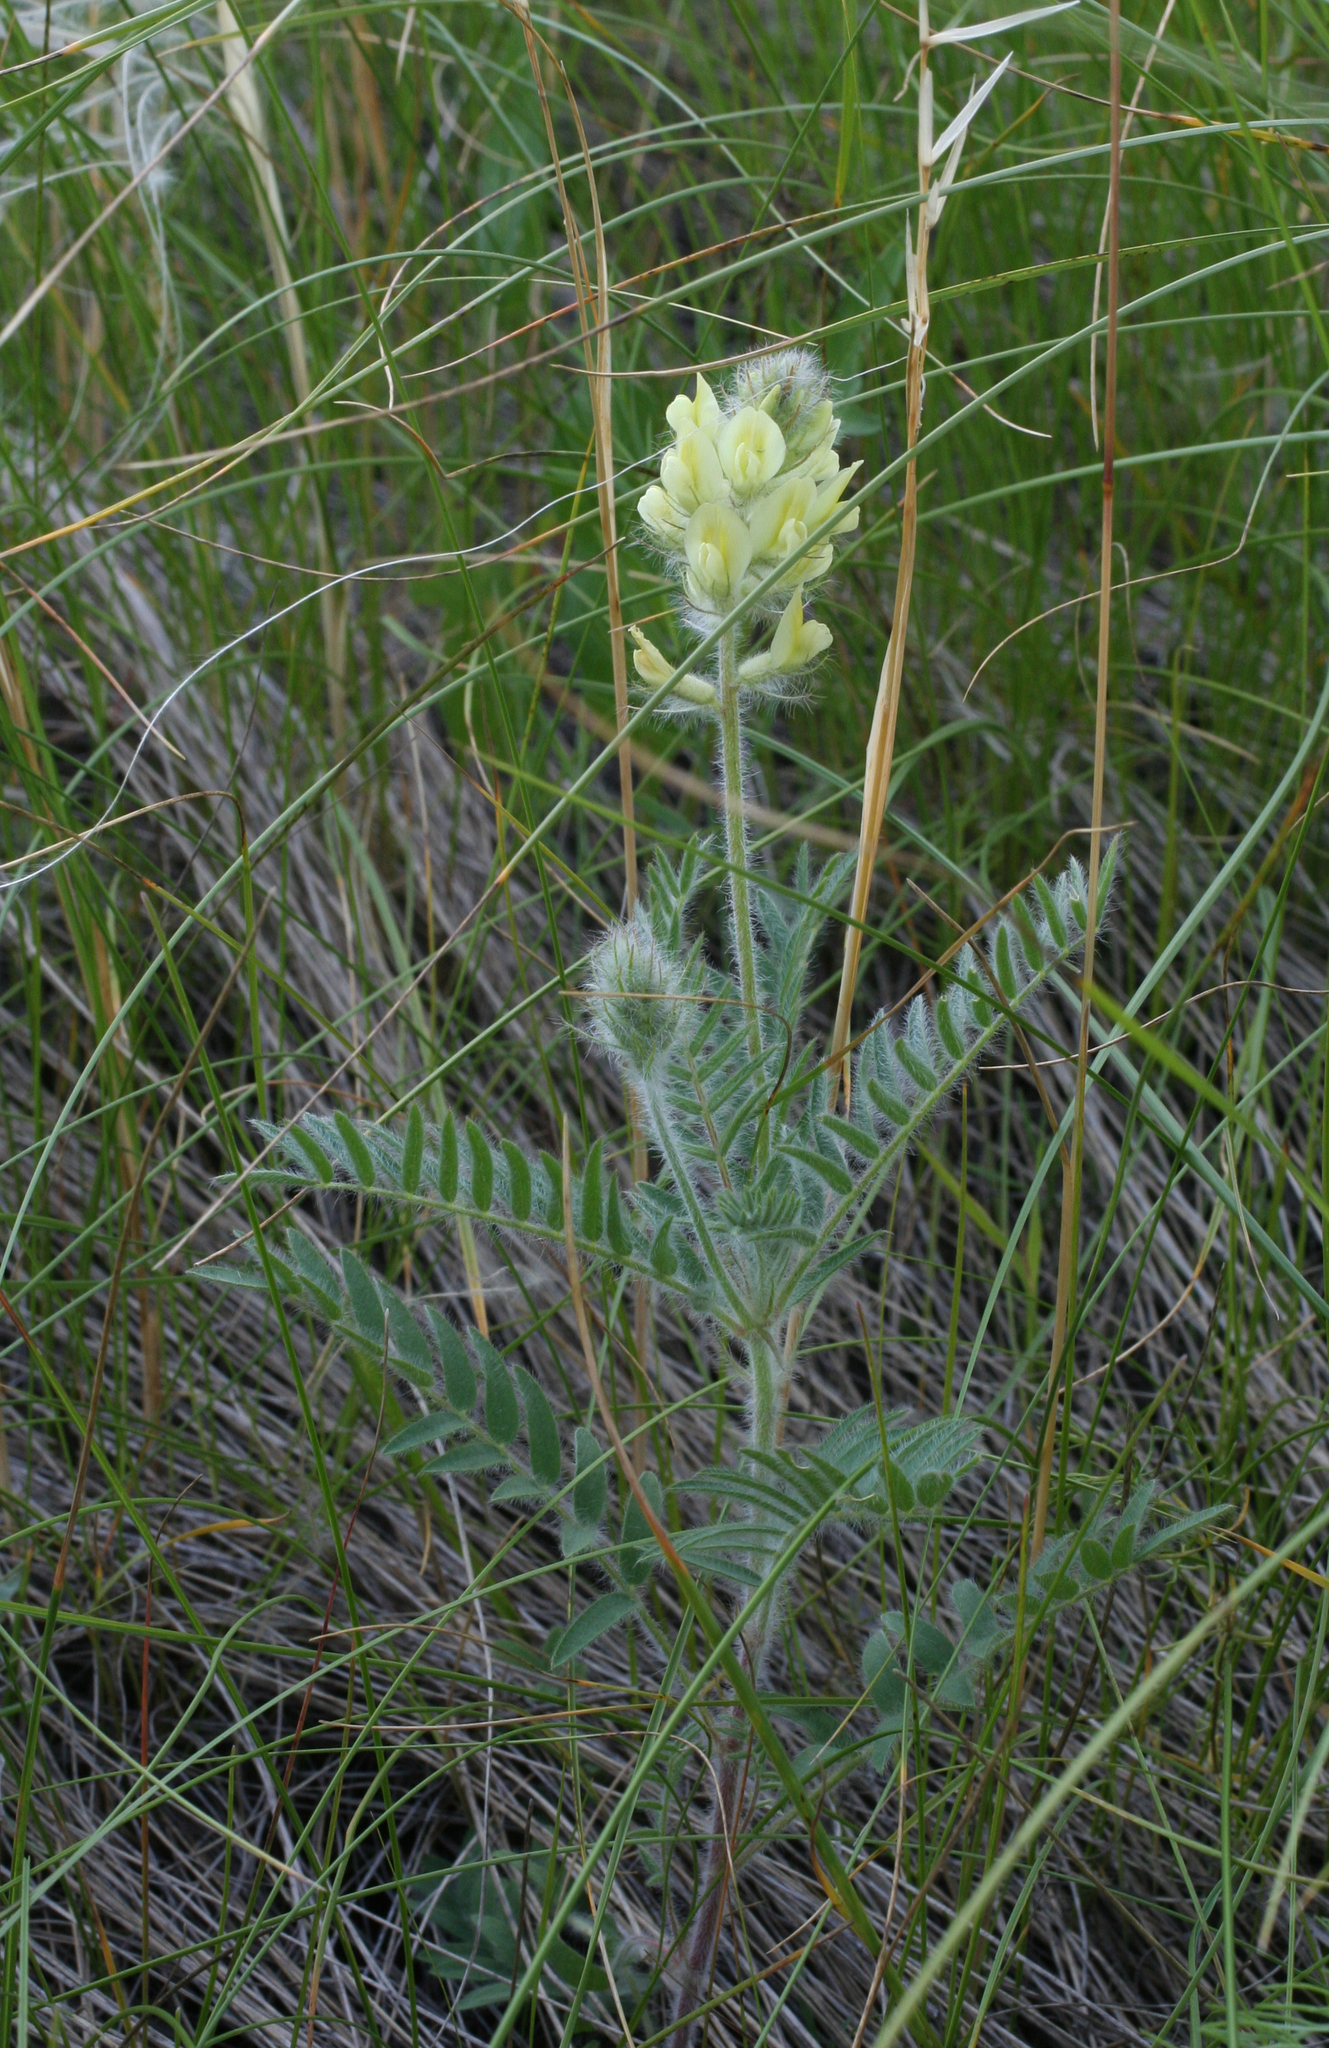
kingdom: Plantae
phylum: Tracheophyta
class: Magnoliopsida
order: Fabales
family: Fabaceae
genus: Oxytropis
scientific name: Oxytropis pilosa
